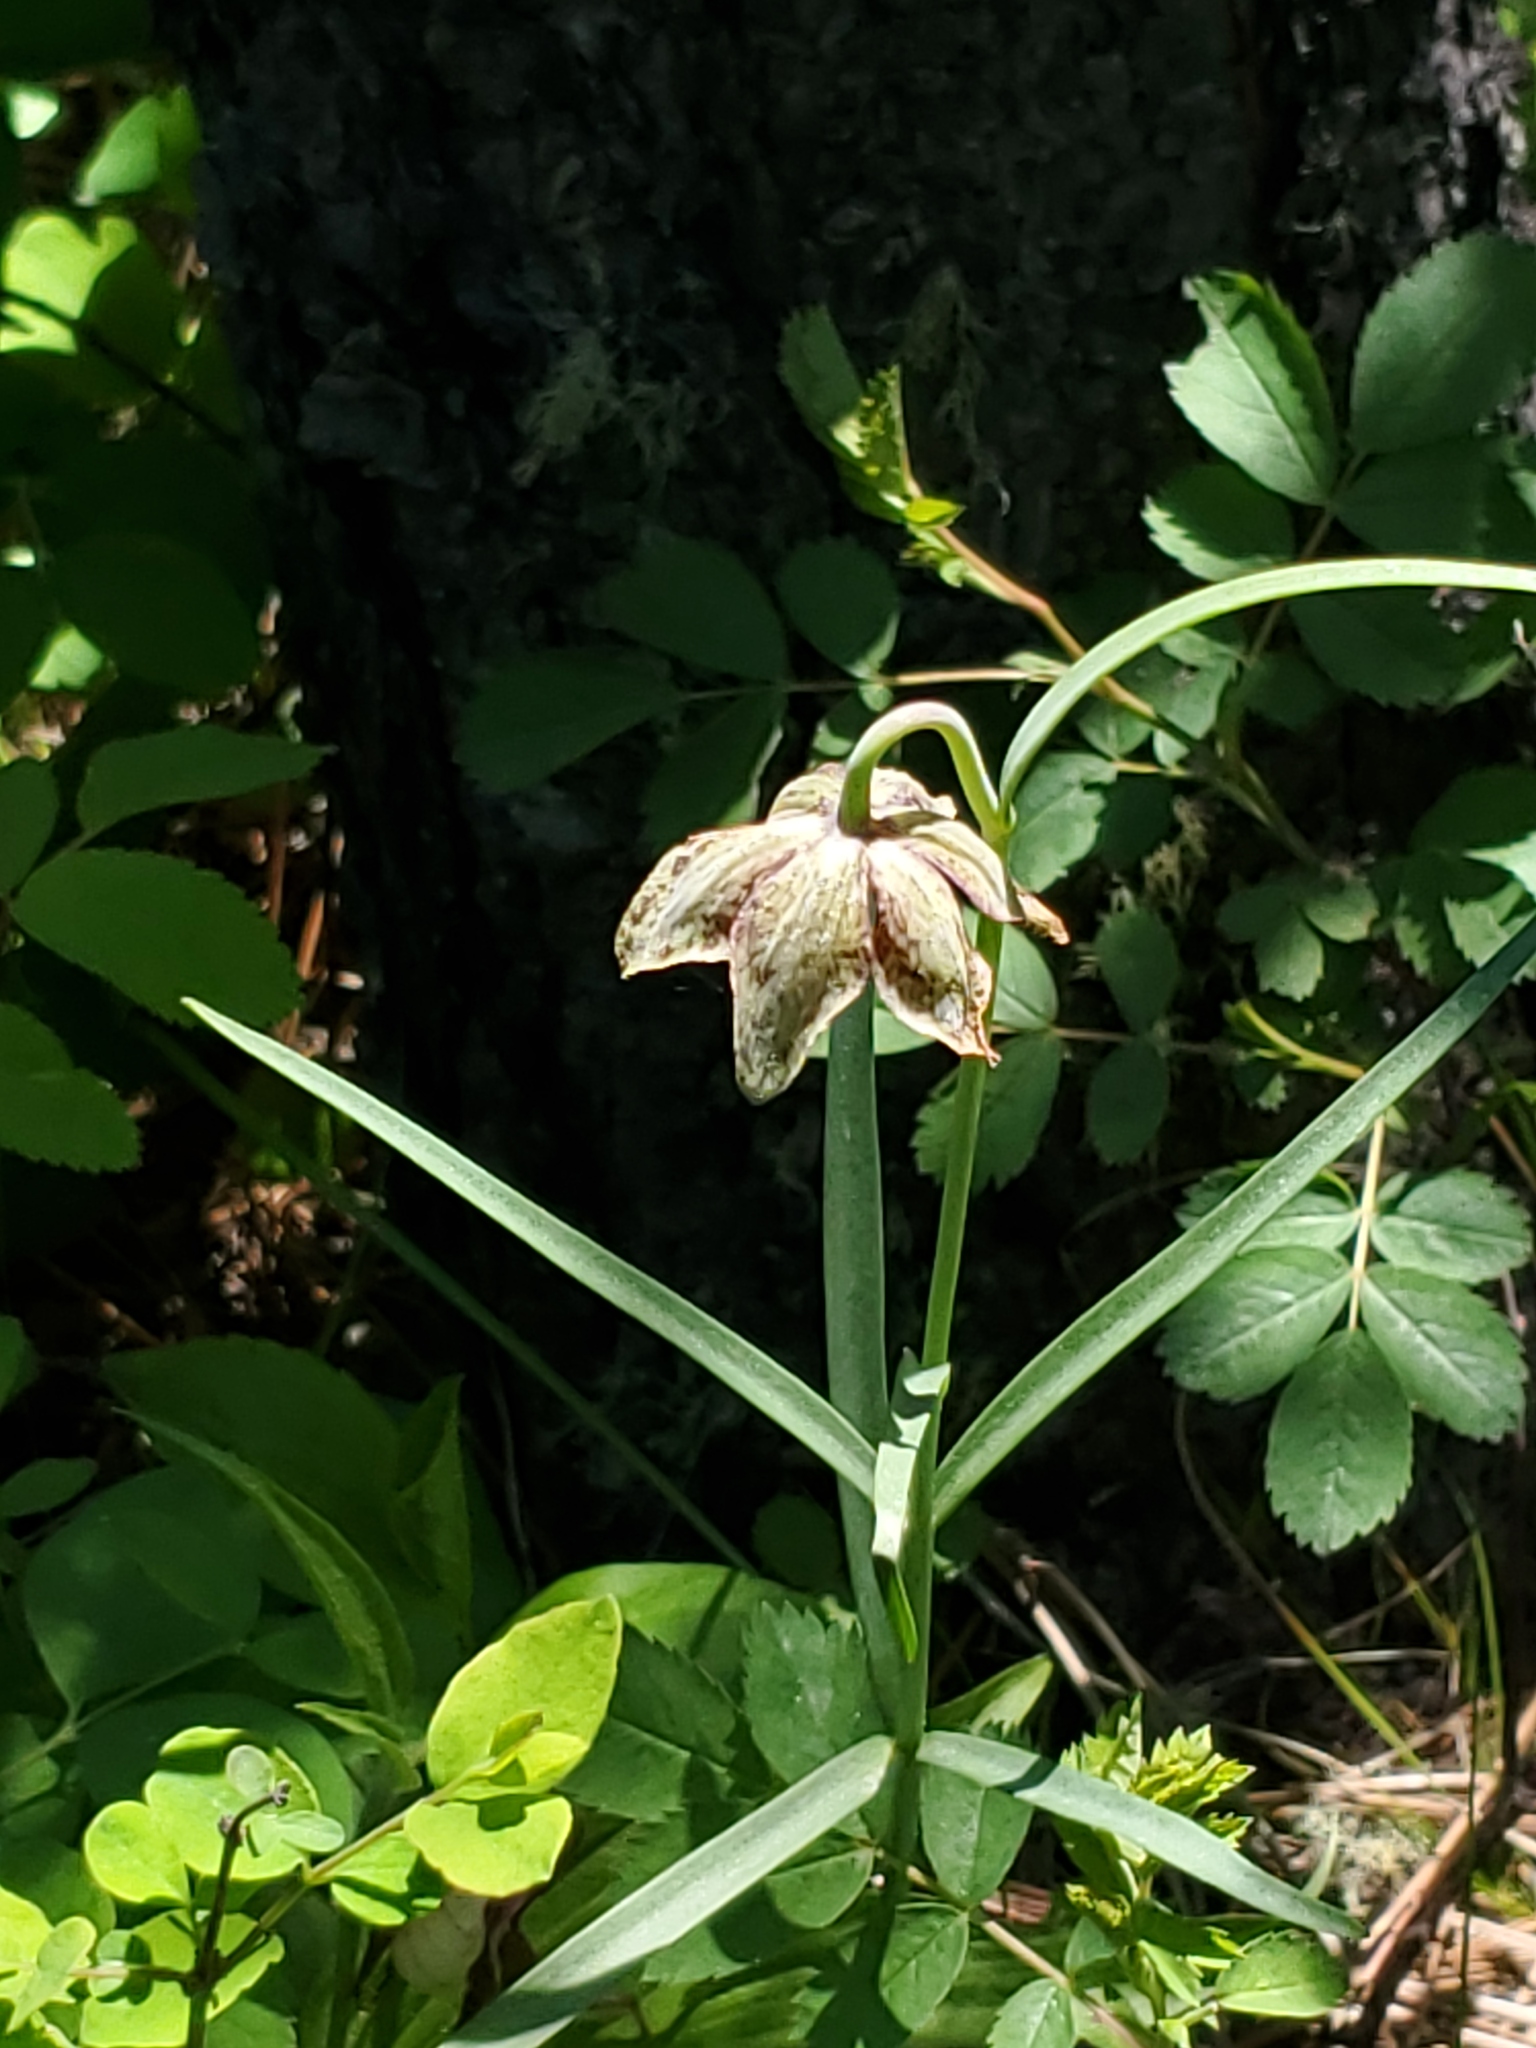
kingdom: Plantae
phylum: Tracheophyta
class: Liliopsida
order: Liliales
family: Liliaceae
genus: Fritillaria
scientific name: Fritillaria atropurpurea
